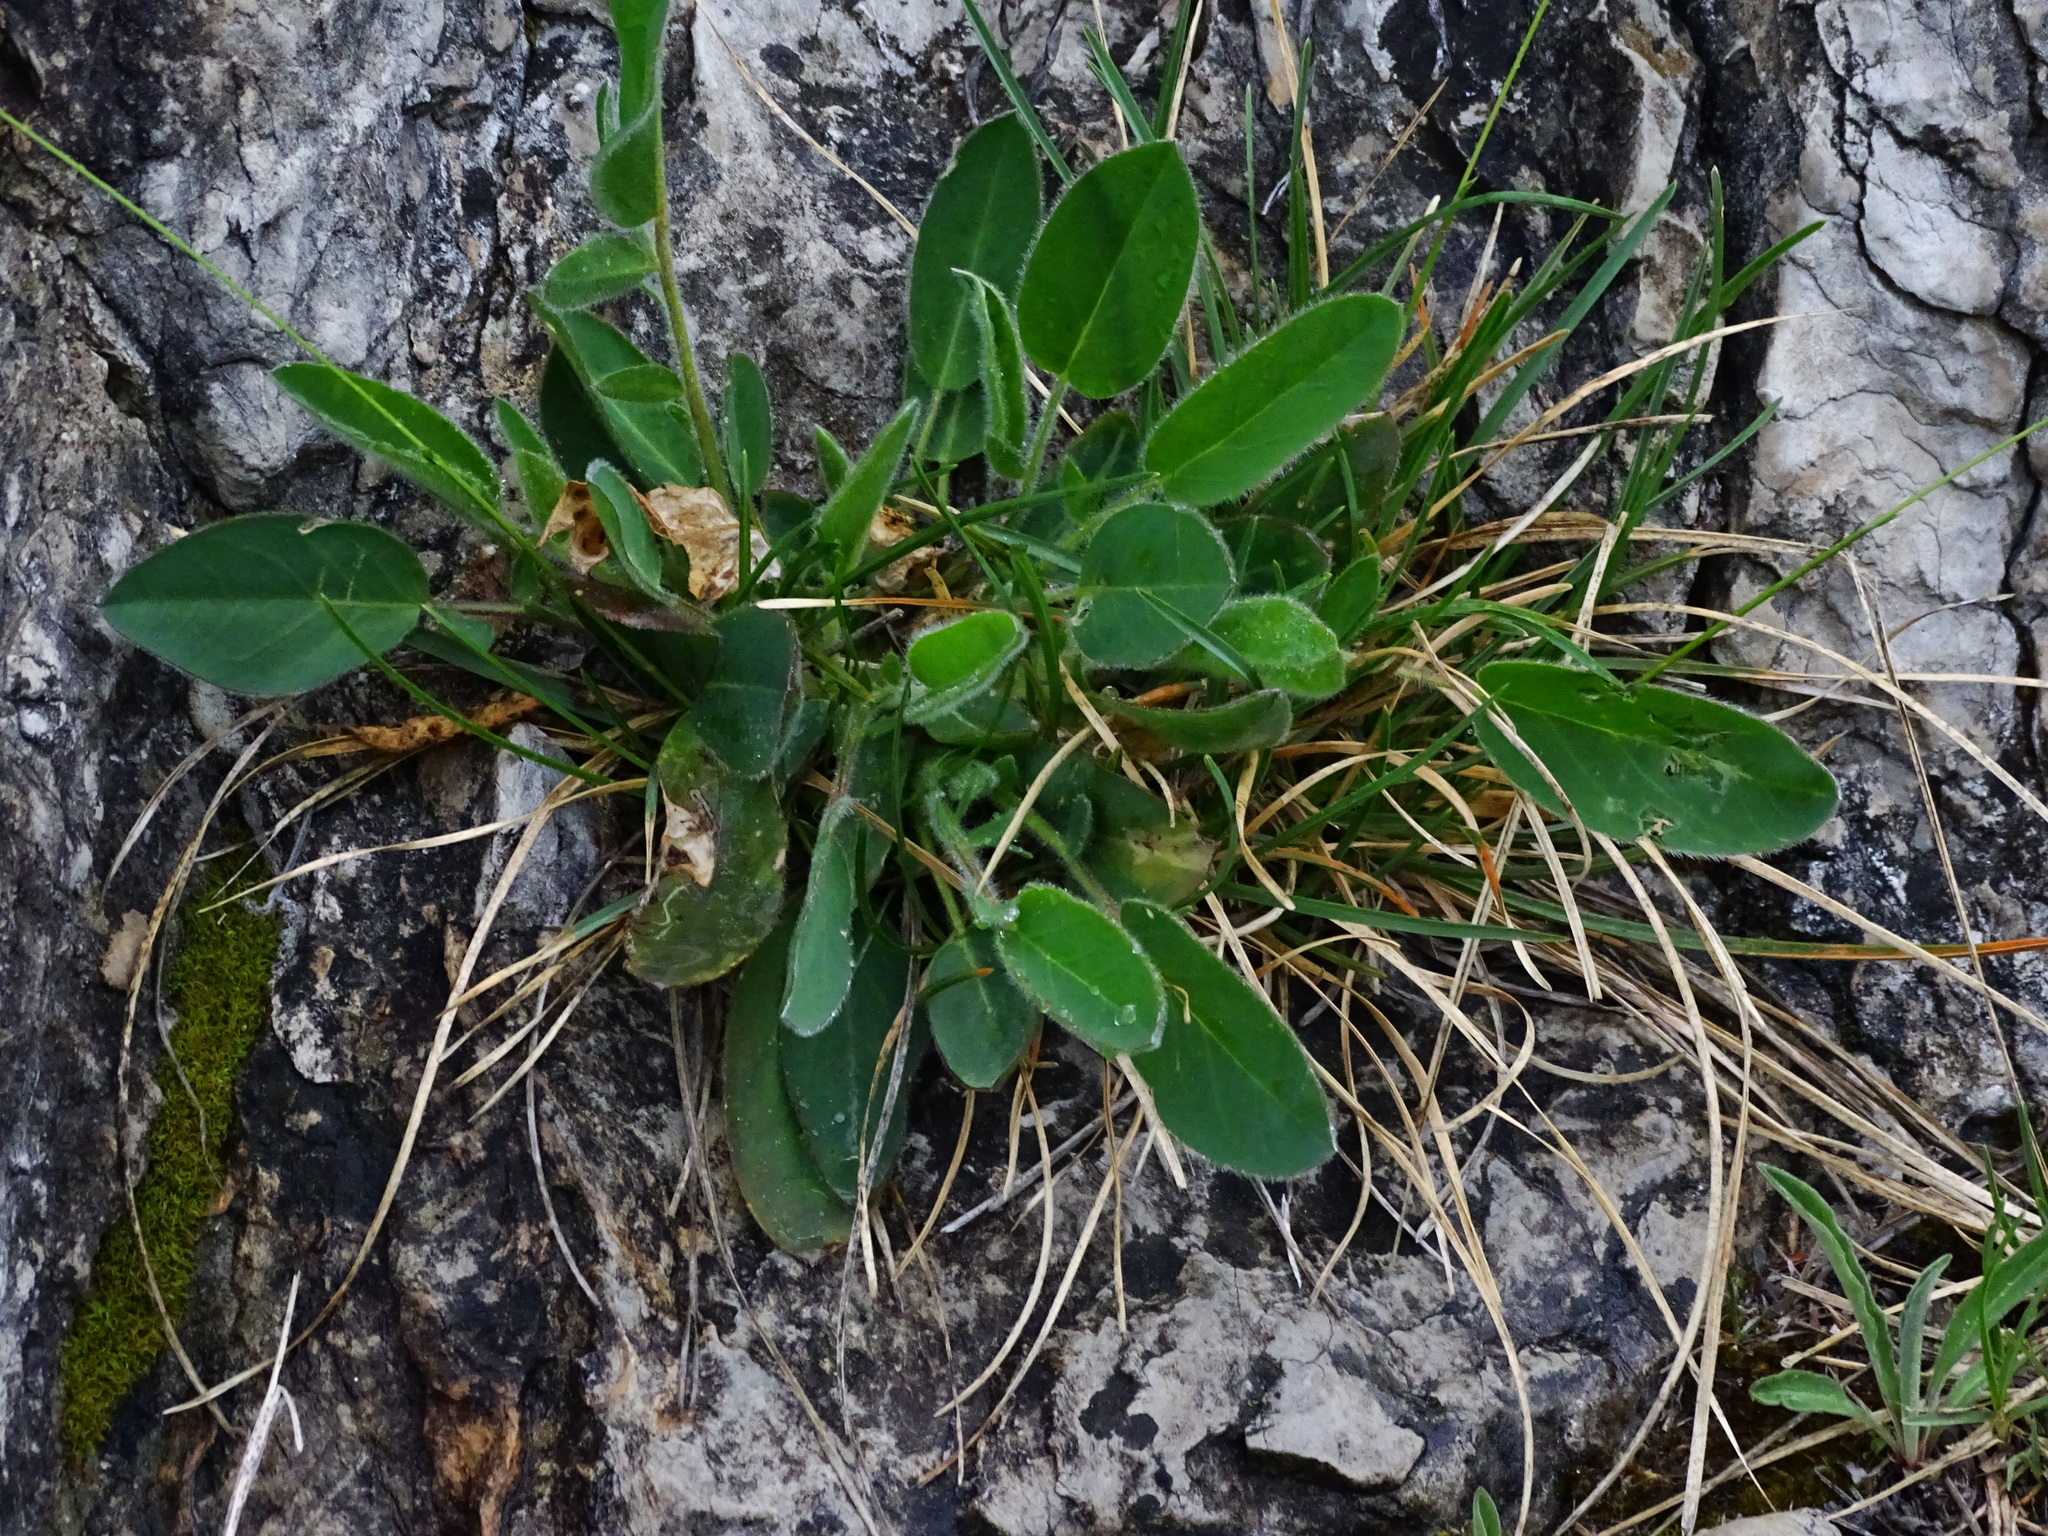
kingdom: Plantae
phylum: Tracheophyta
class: Magnoliopsida
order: Fabales
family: Fabaceae
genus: Anthyllis
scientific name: Anthyllis vulneraria
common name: Kidney vetch
